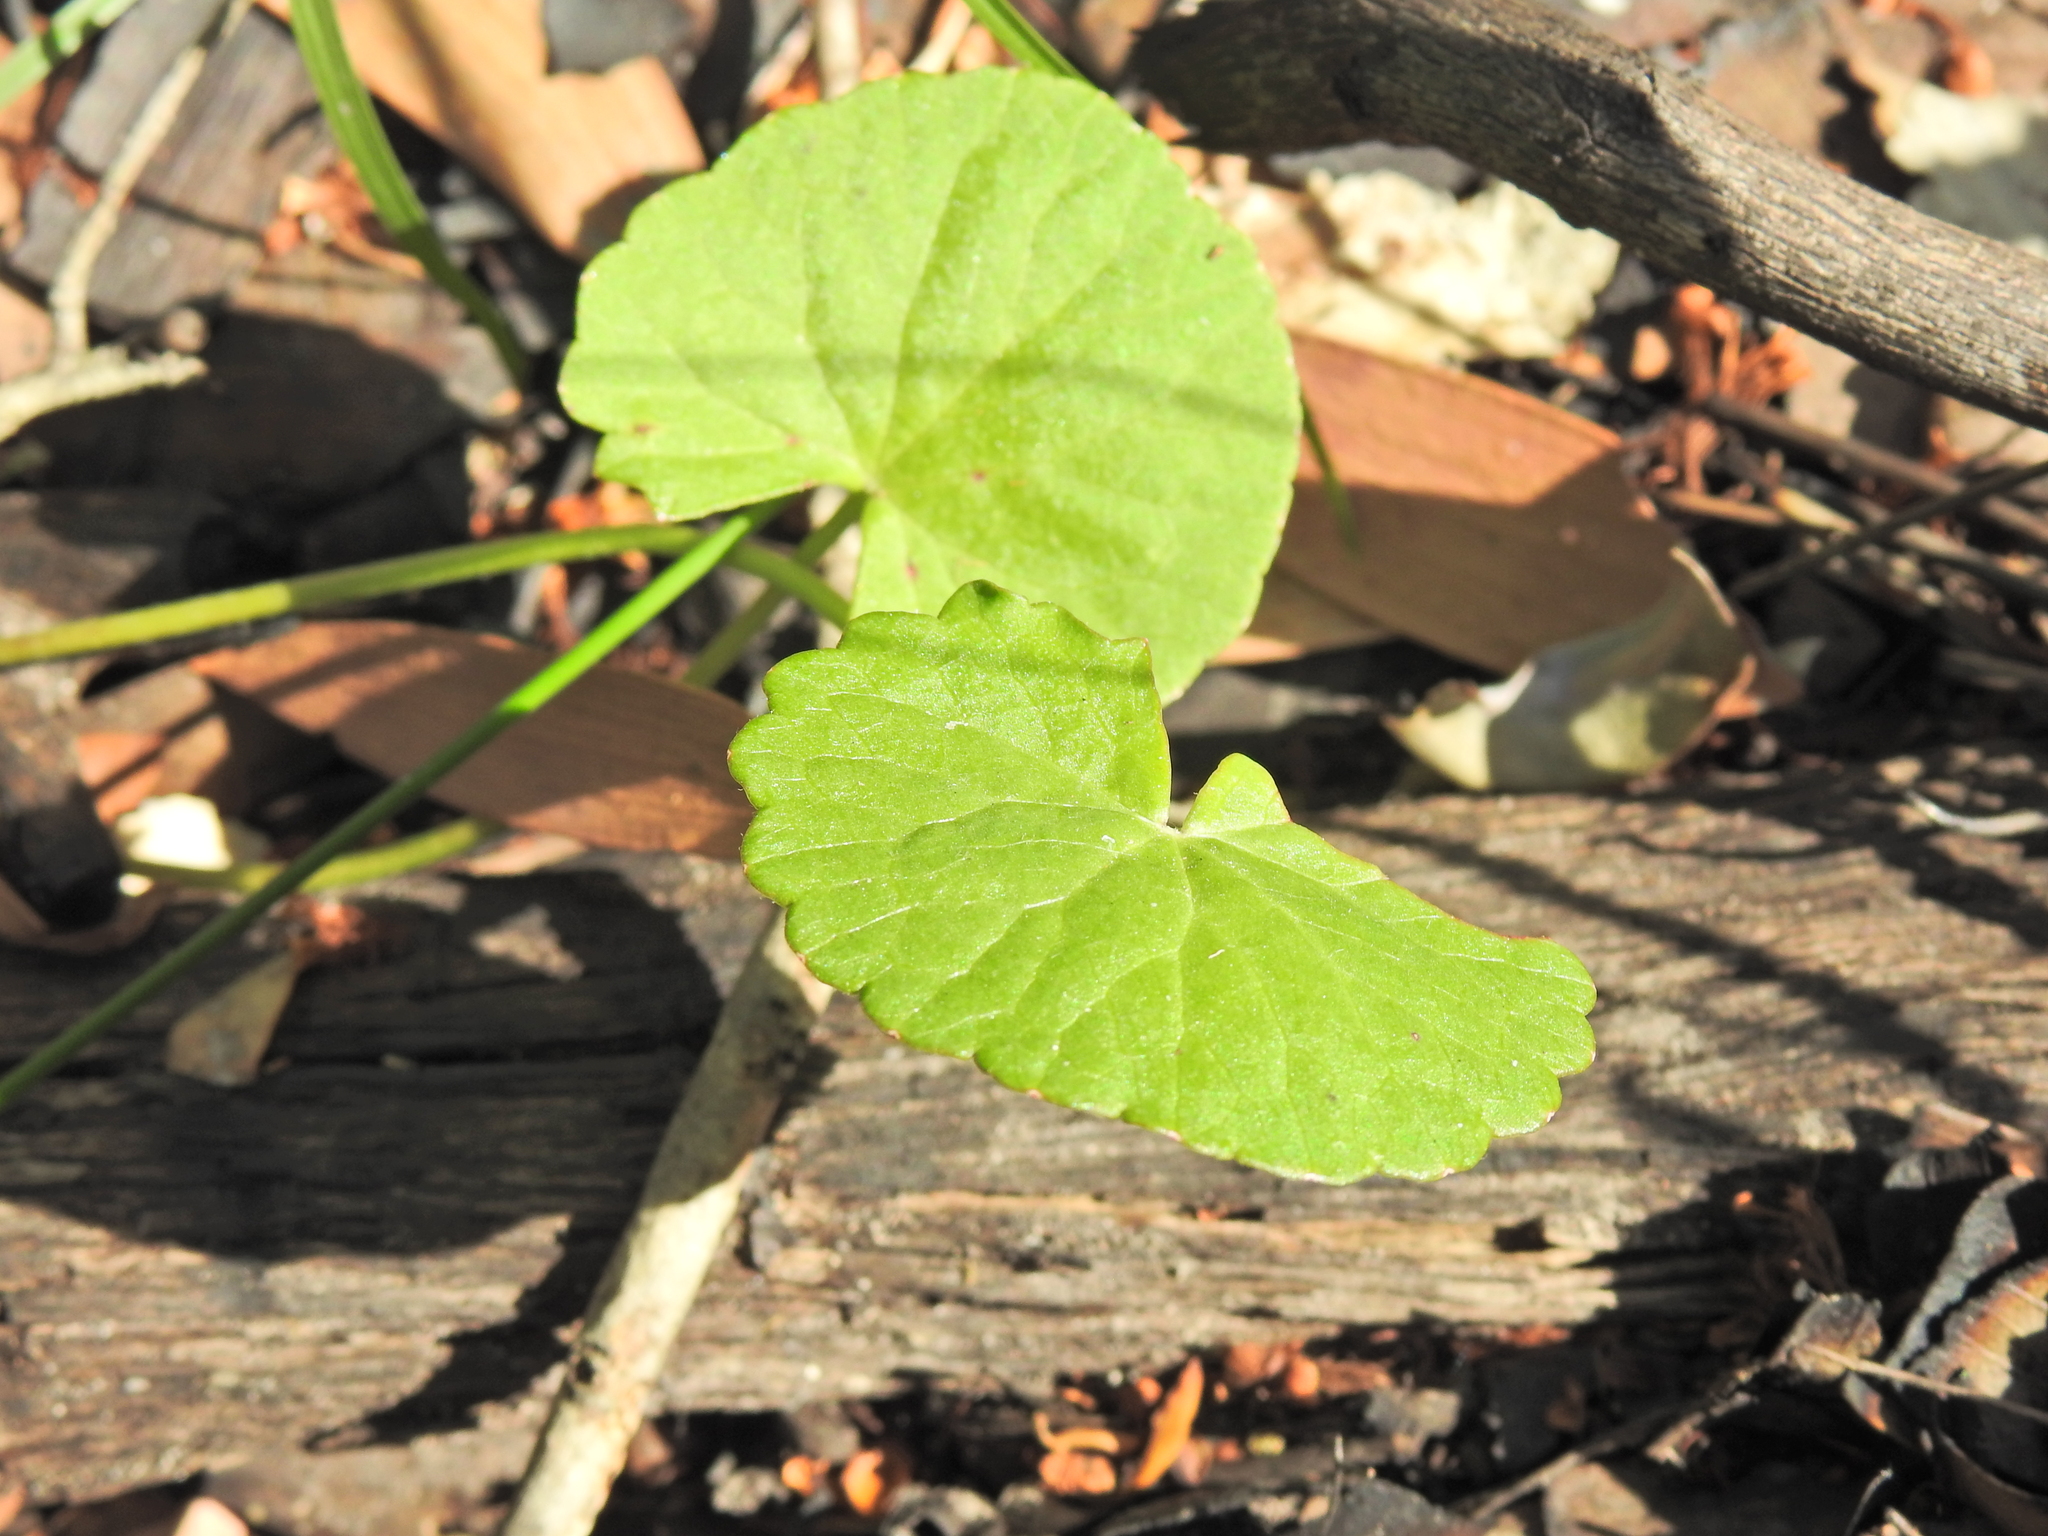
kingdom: Plantae
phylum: Tracheophyta
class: Magnoliopsida
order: Apiales
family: Apiaceae
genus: Centella
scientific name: Centella asiatica
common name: Spadeleaf
